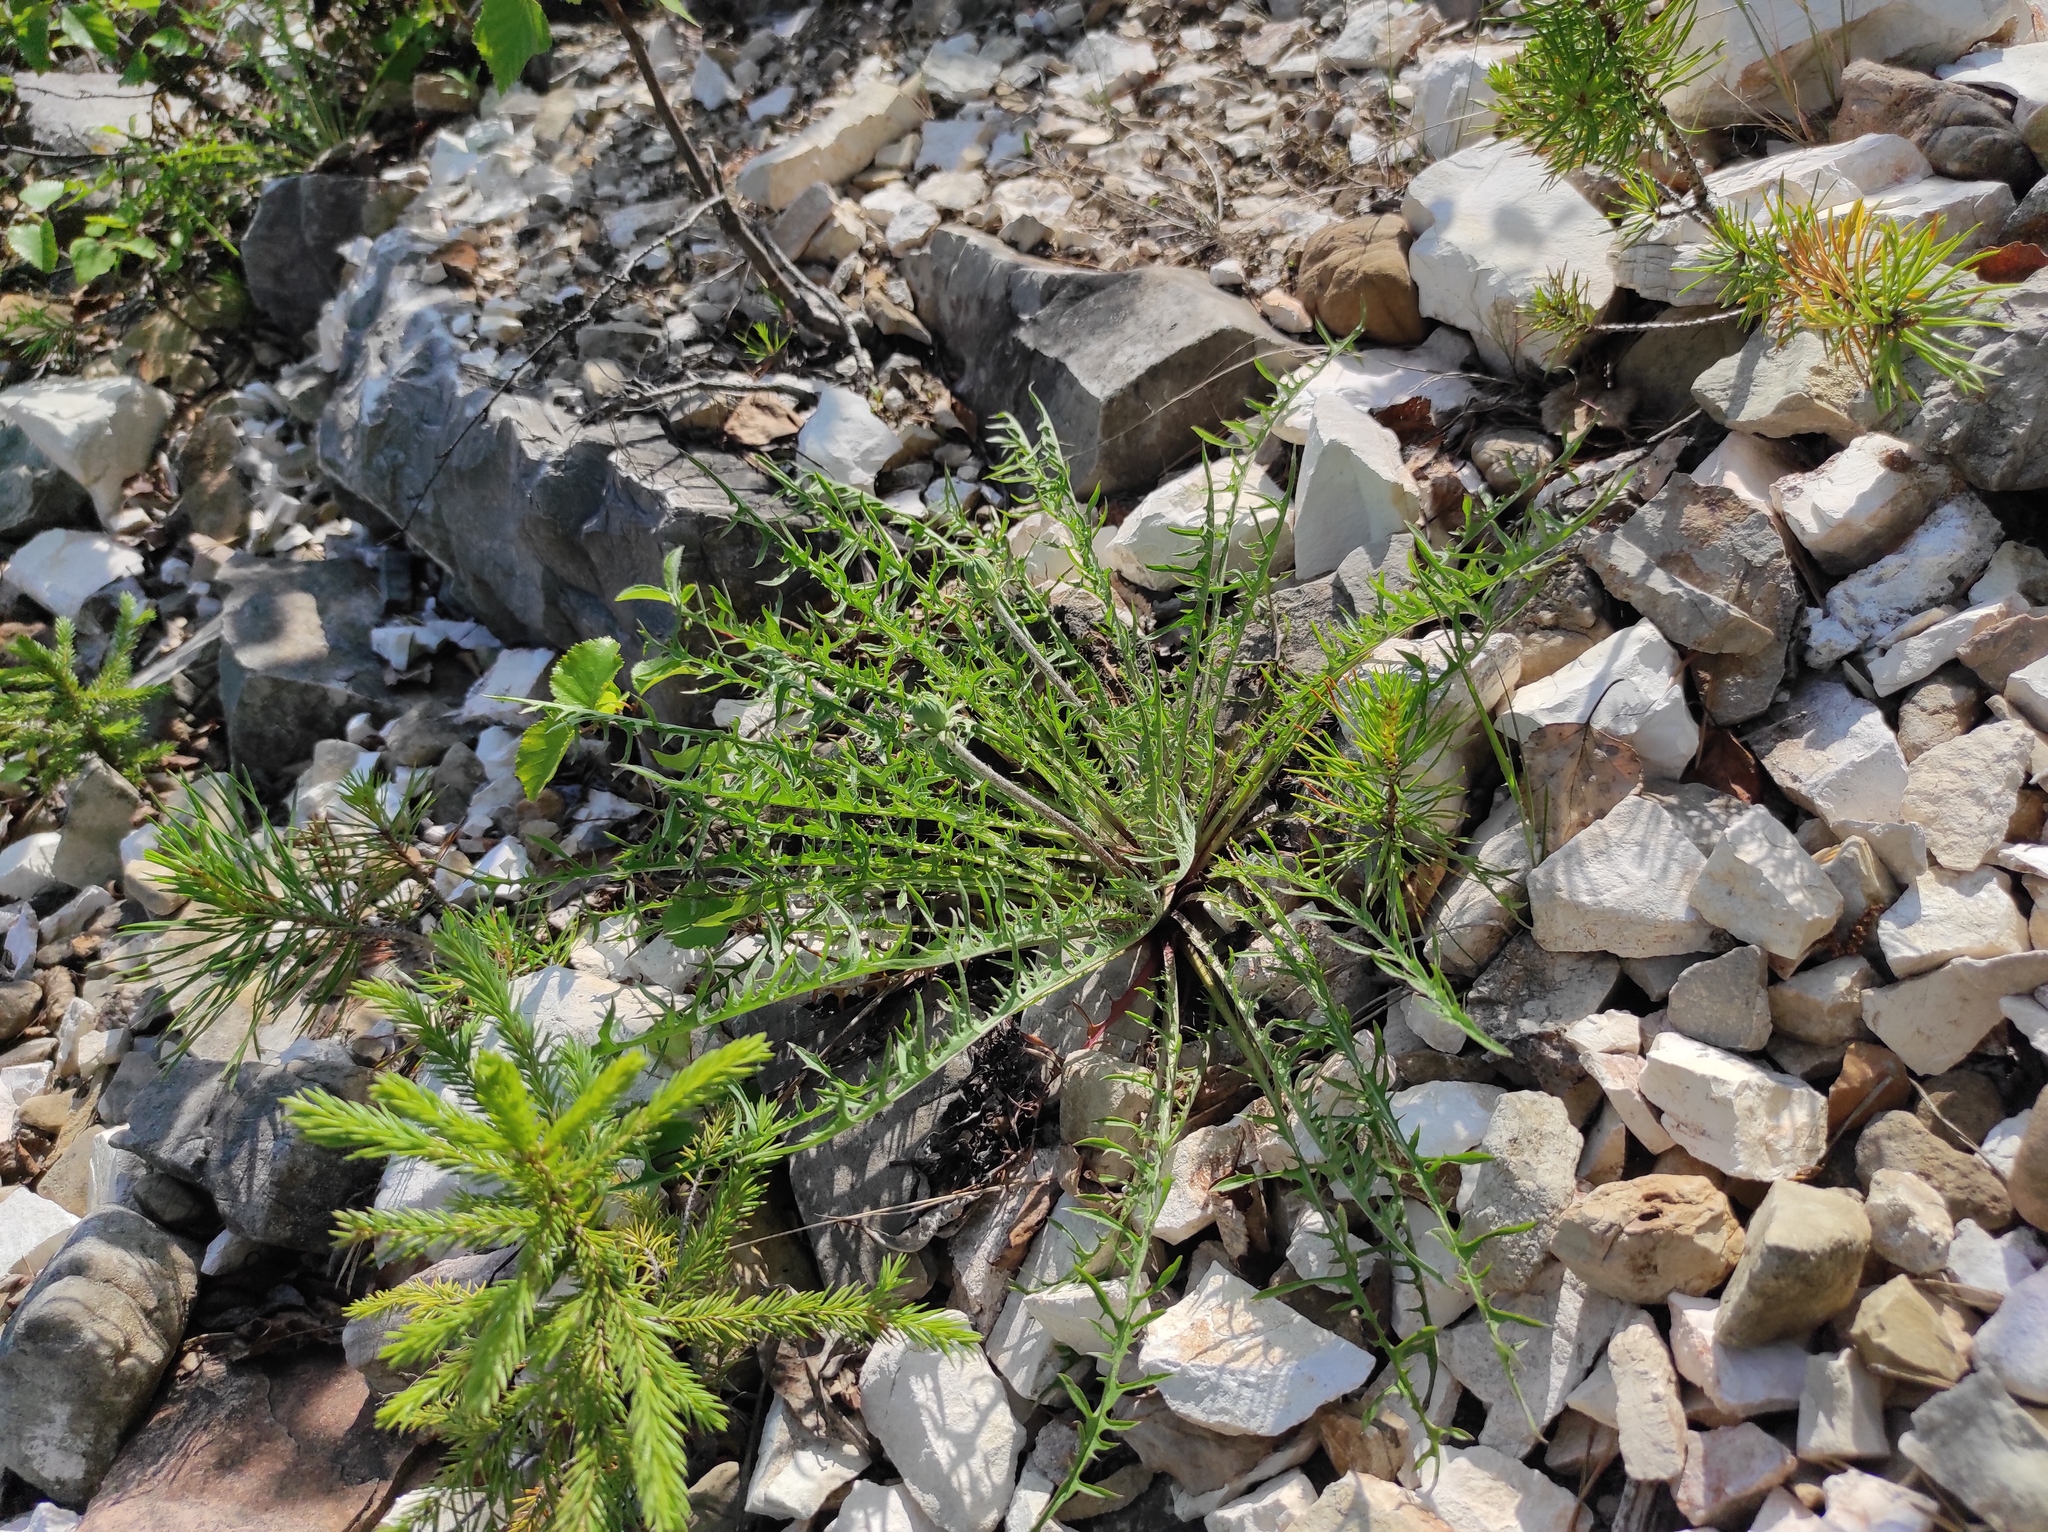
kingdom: Plantae
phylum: Tracheophyta
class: Pinopsida
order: Pinales
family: Pinaceae
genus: Picea
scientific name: Picea obovata
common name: Siberian spruce
